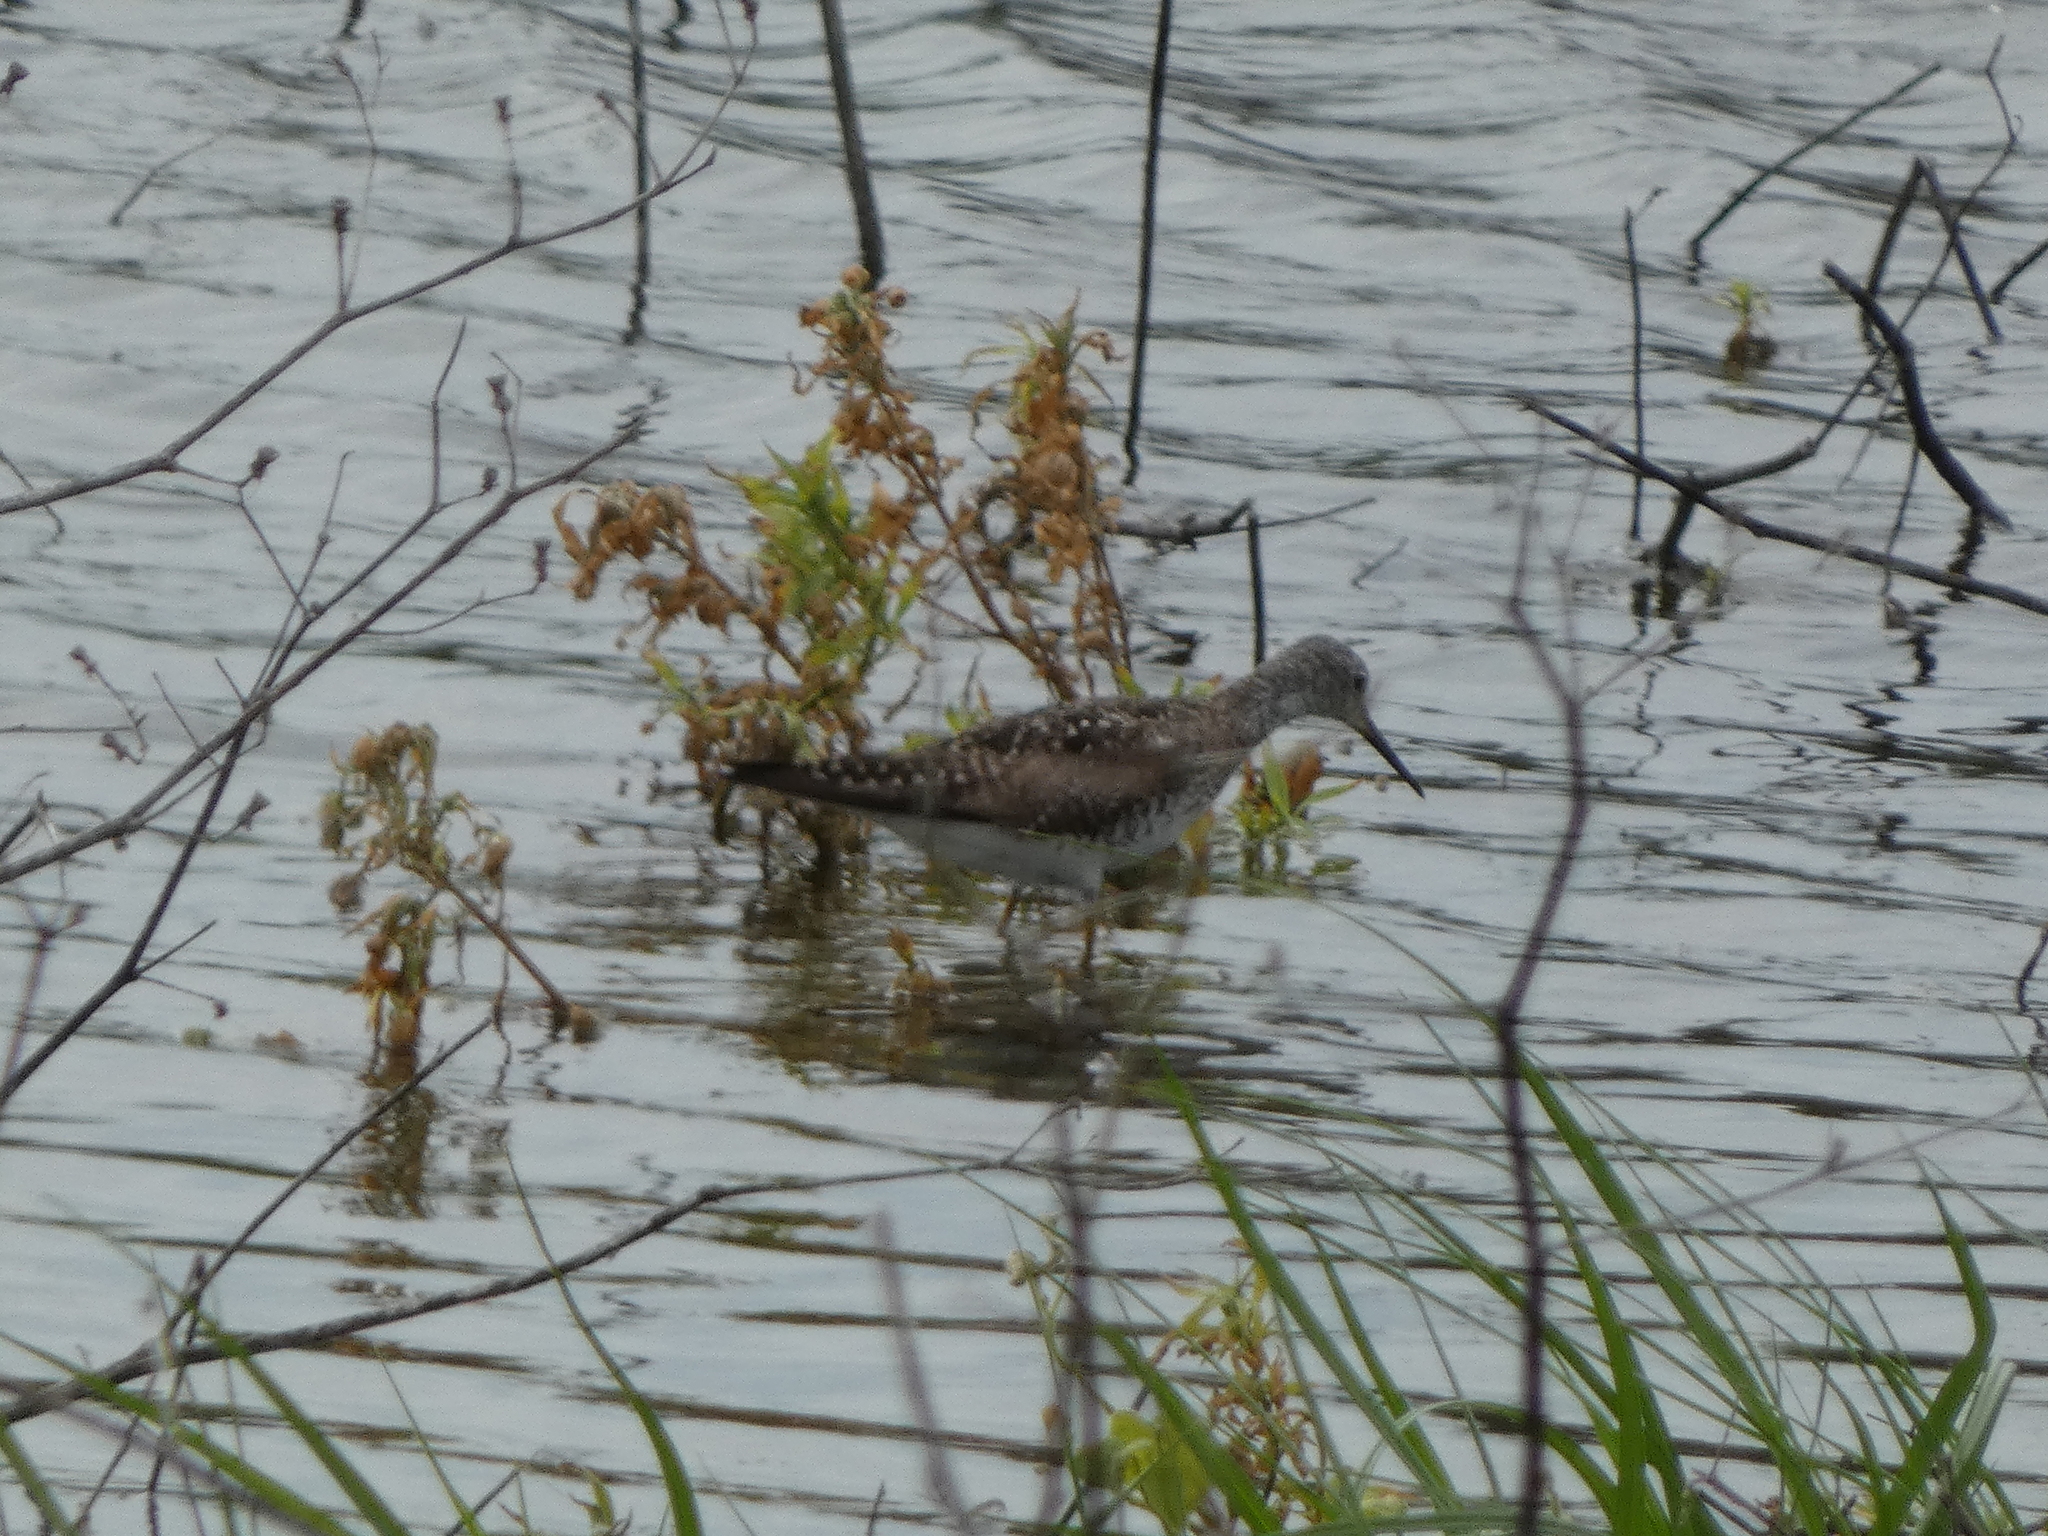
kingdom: Animalia
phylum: Chordata
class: Aves
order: Charadriiformes
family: Scolopacidae
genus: Tringa
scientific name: Tringa flavipes
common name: Lesser yellowlegs
